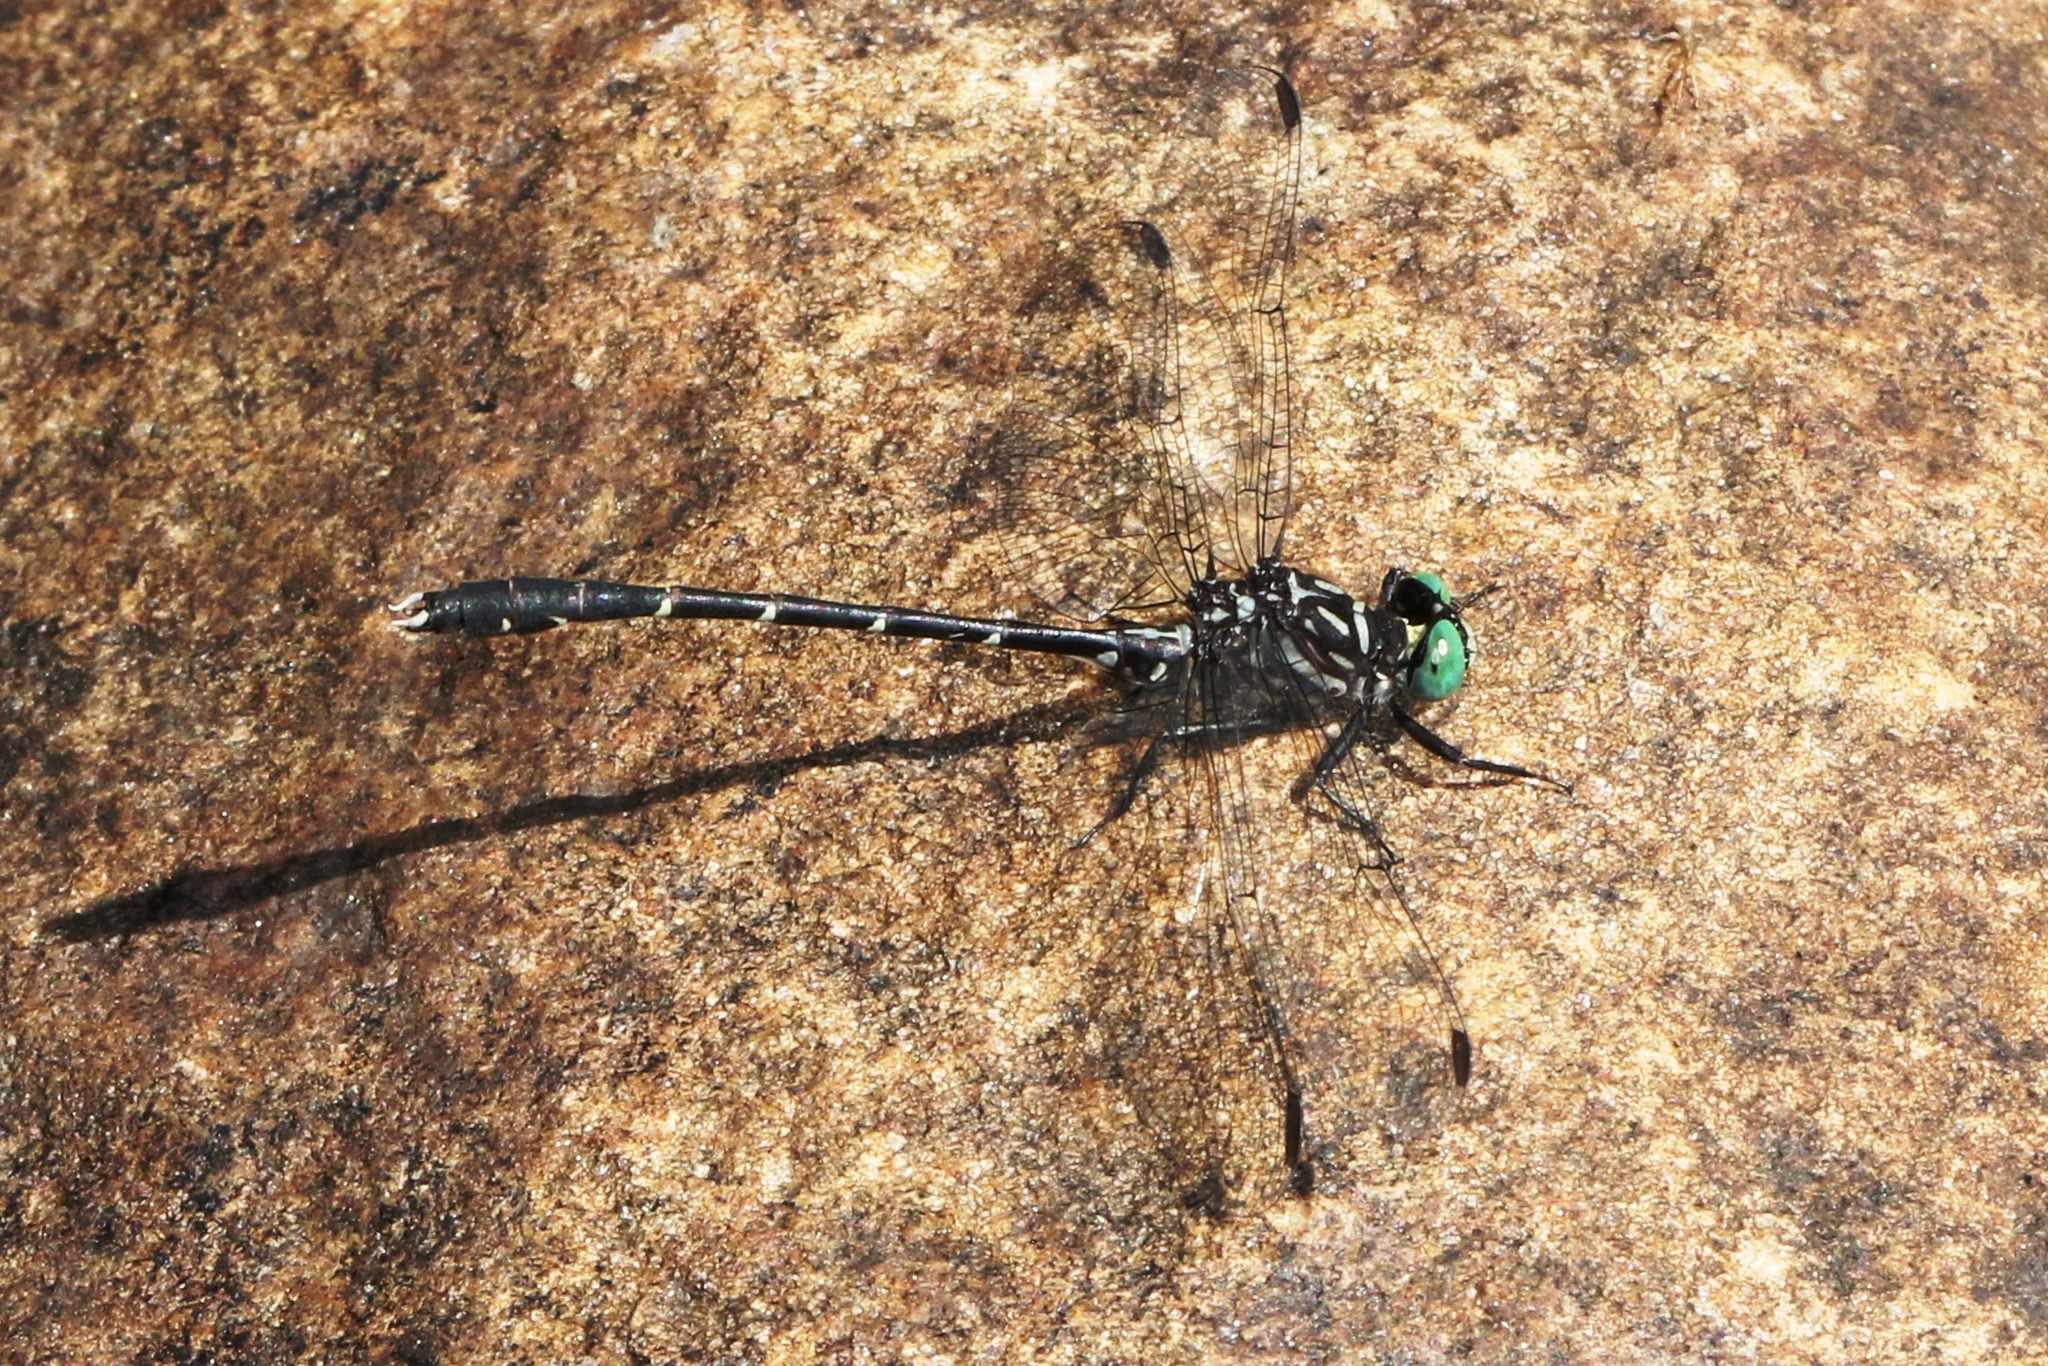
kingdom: Animalia
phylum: Arthropoda
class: Insecta
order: Odonata
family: Gomphidae
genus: Stylogomphus
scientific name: Stylogomphus albistylus
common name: Eastern least clubtail
